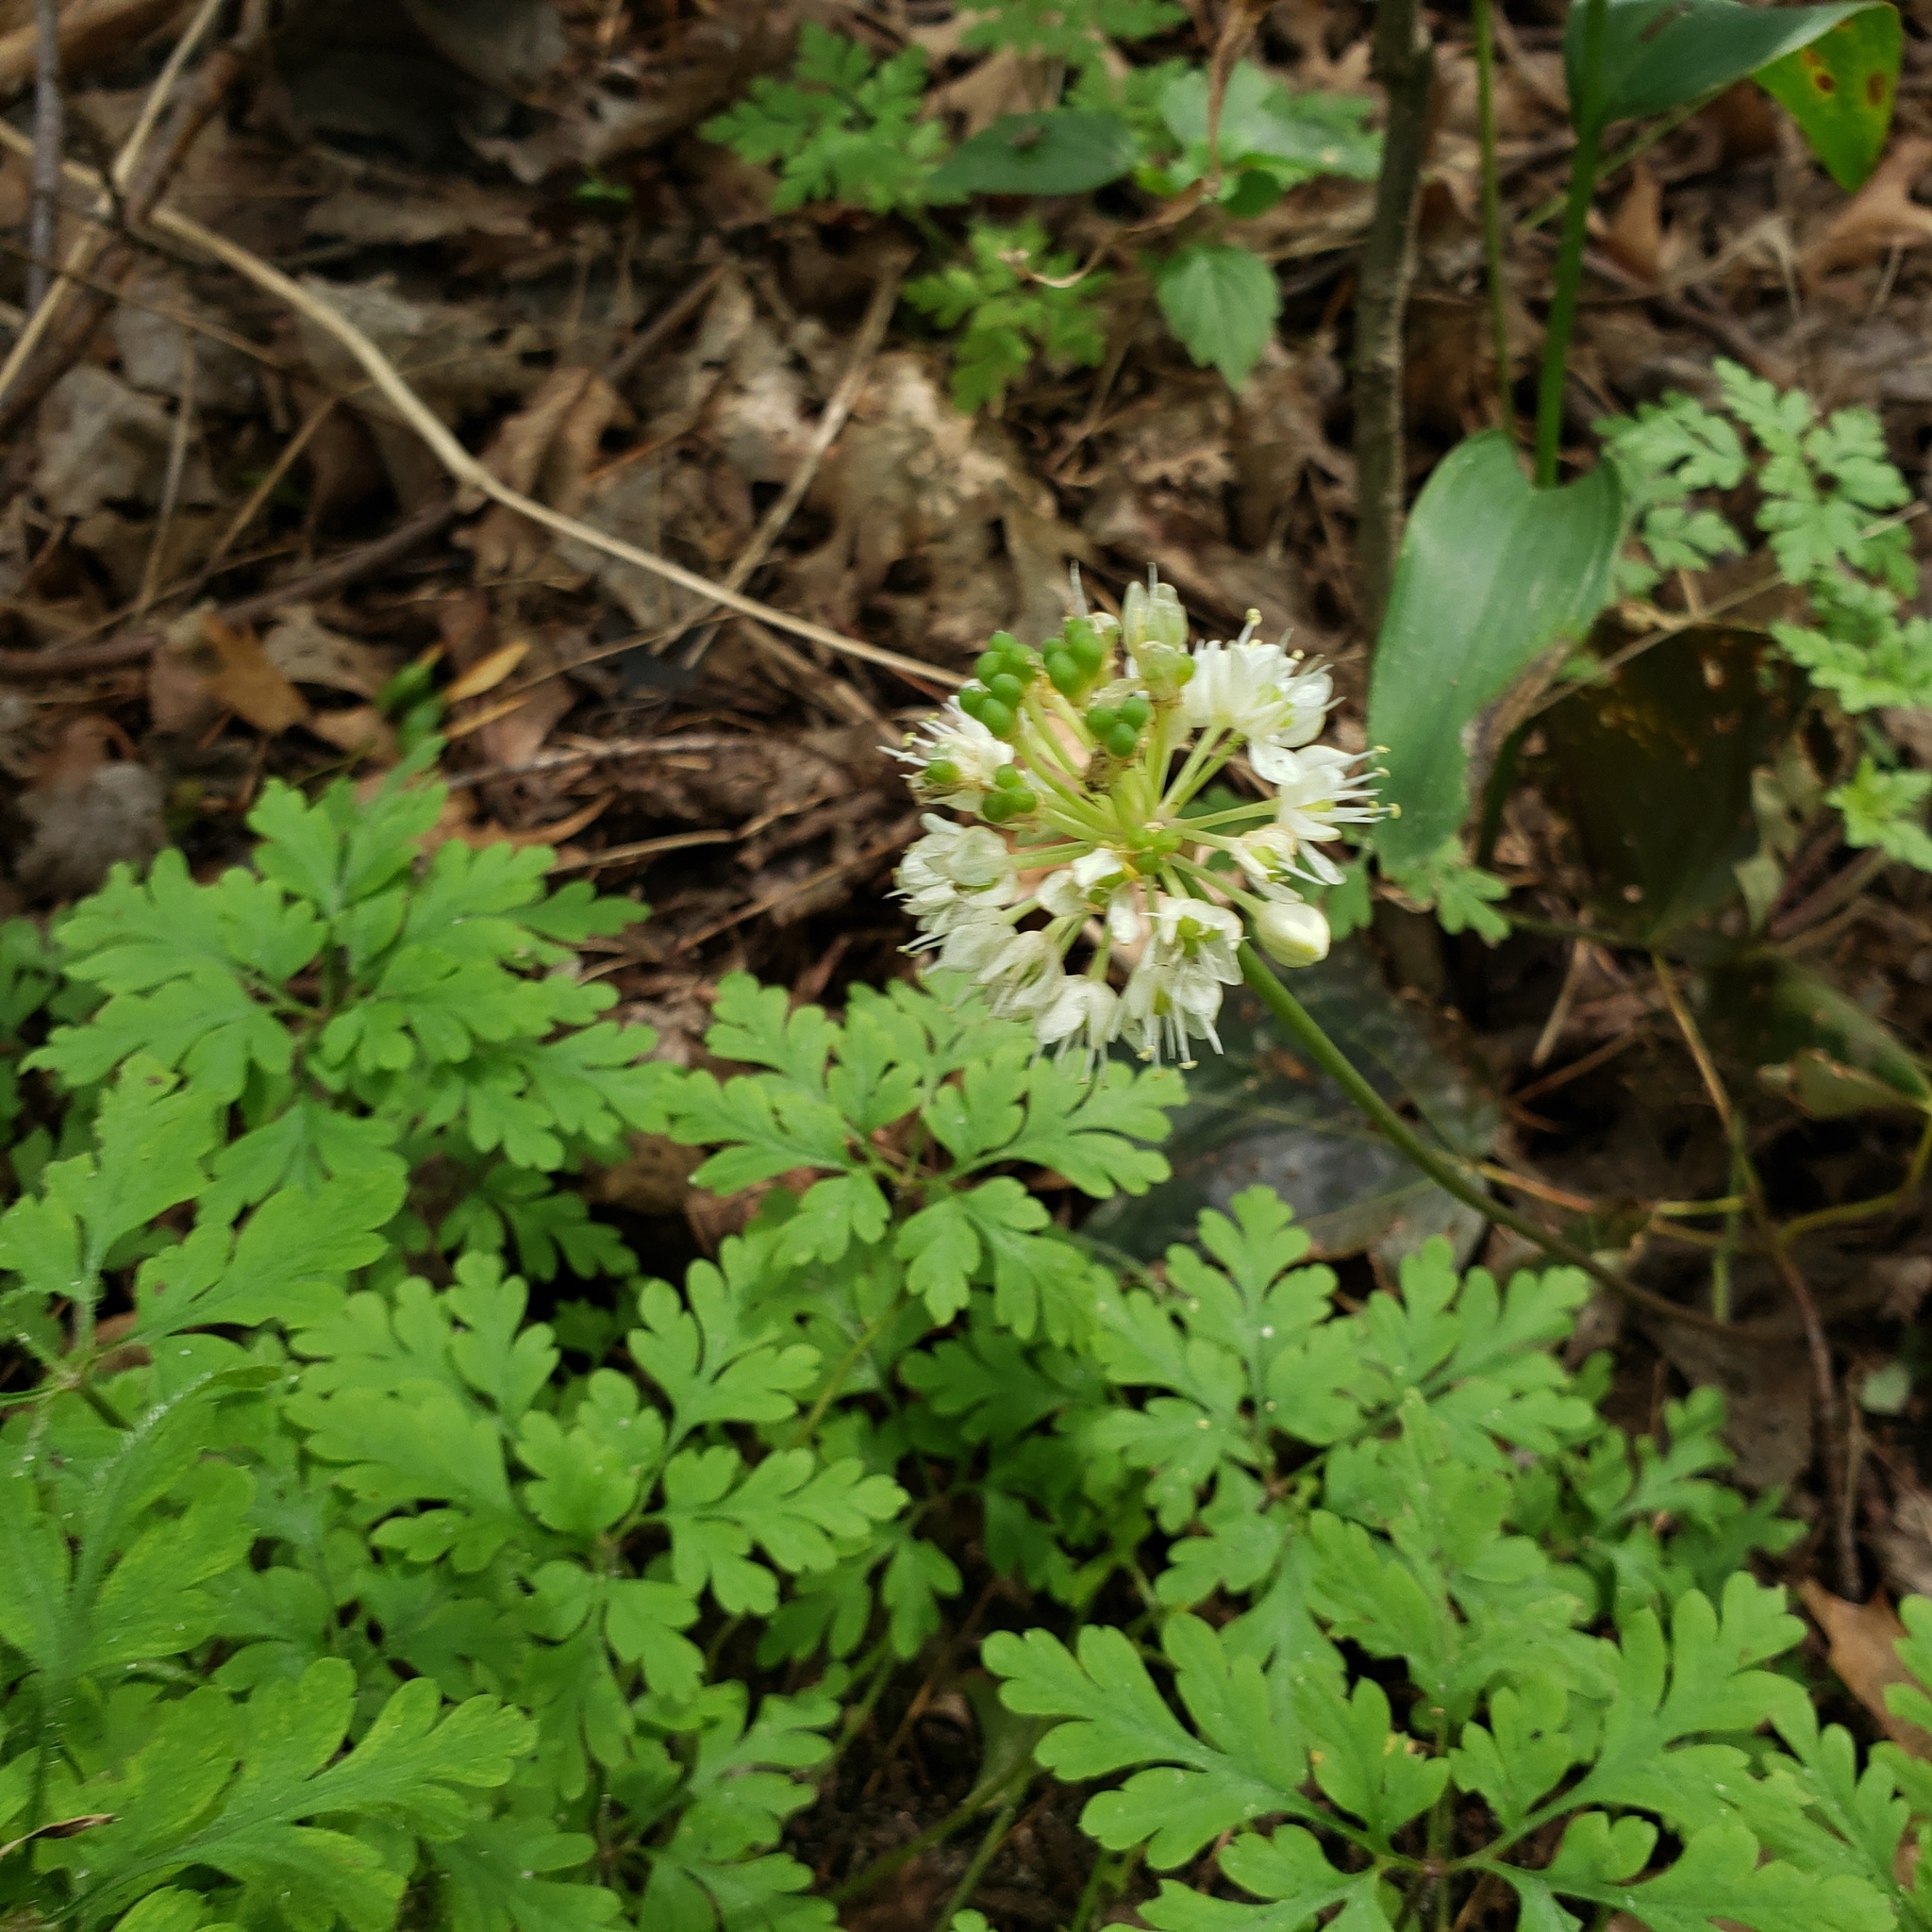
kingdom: Plantae
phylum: Tracheophyta
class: Liliopsida
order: Asparagales
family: Amaryllidaceae
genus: Allium
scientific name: Allium tricoccum
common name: Ramp
